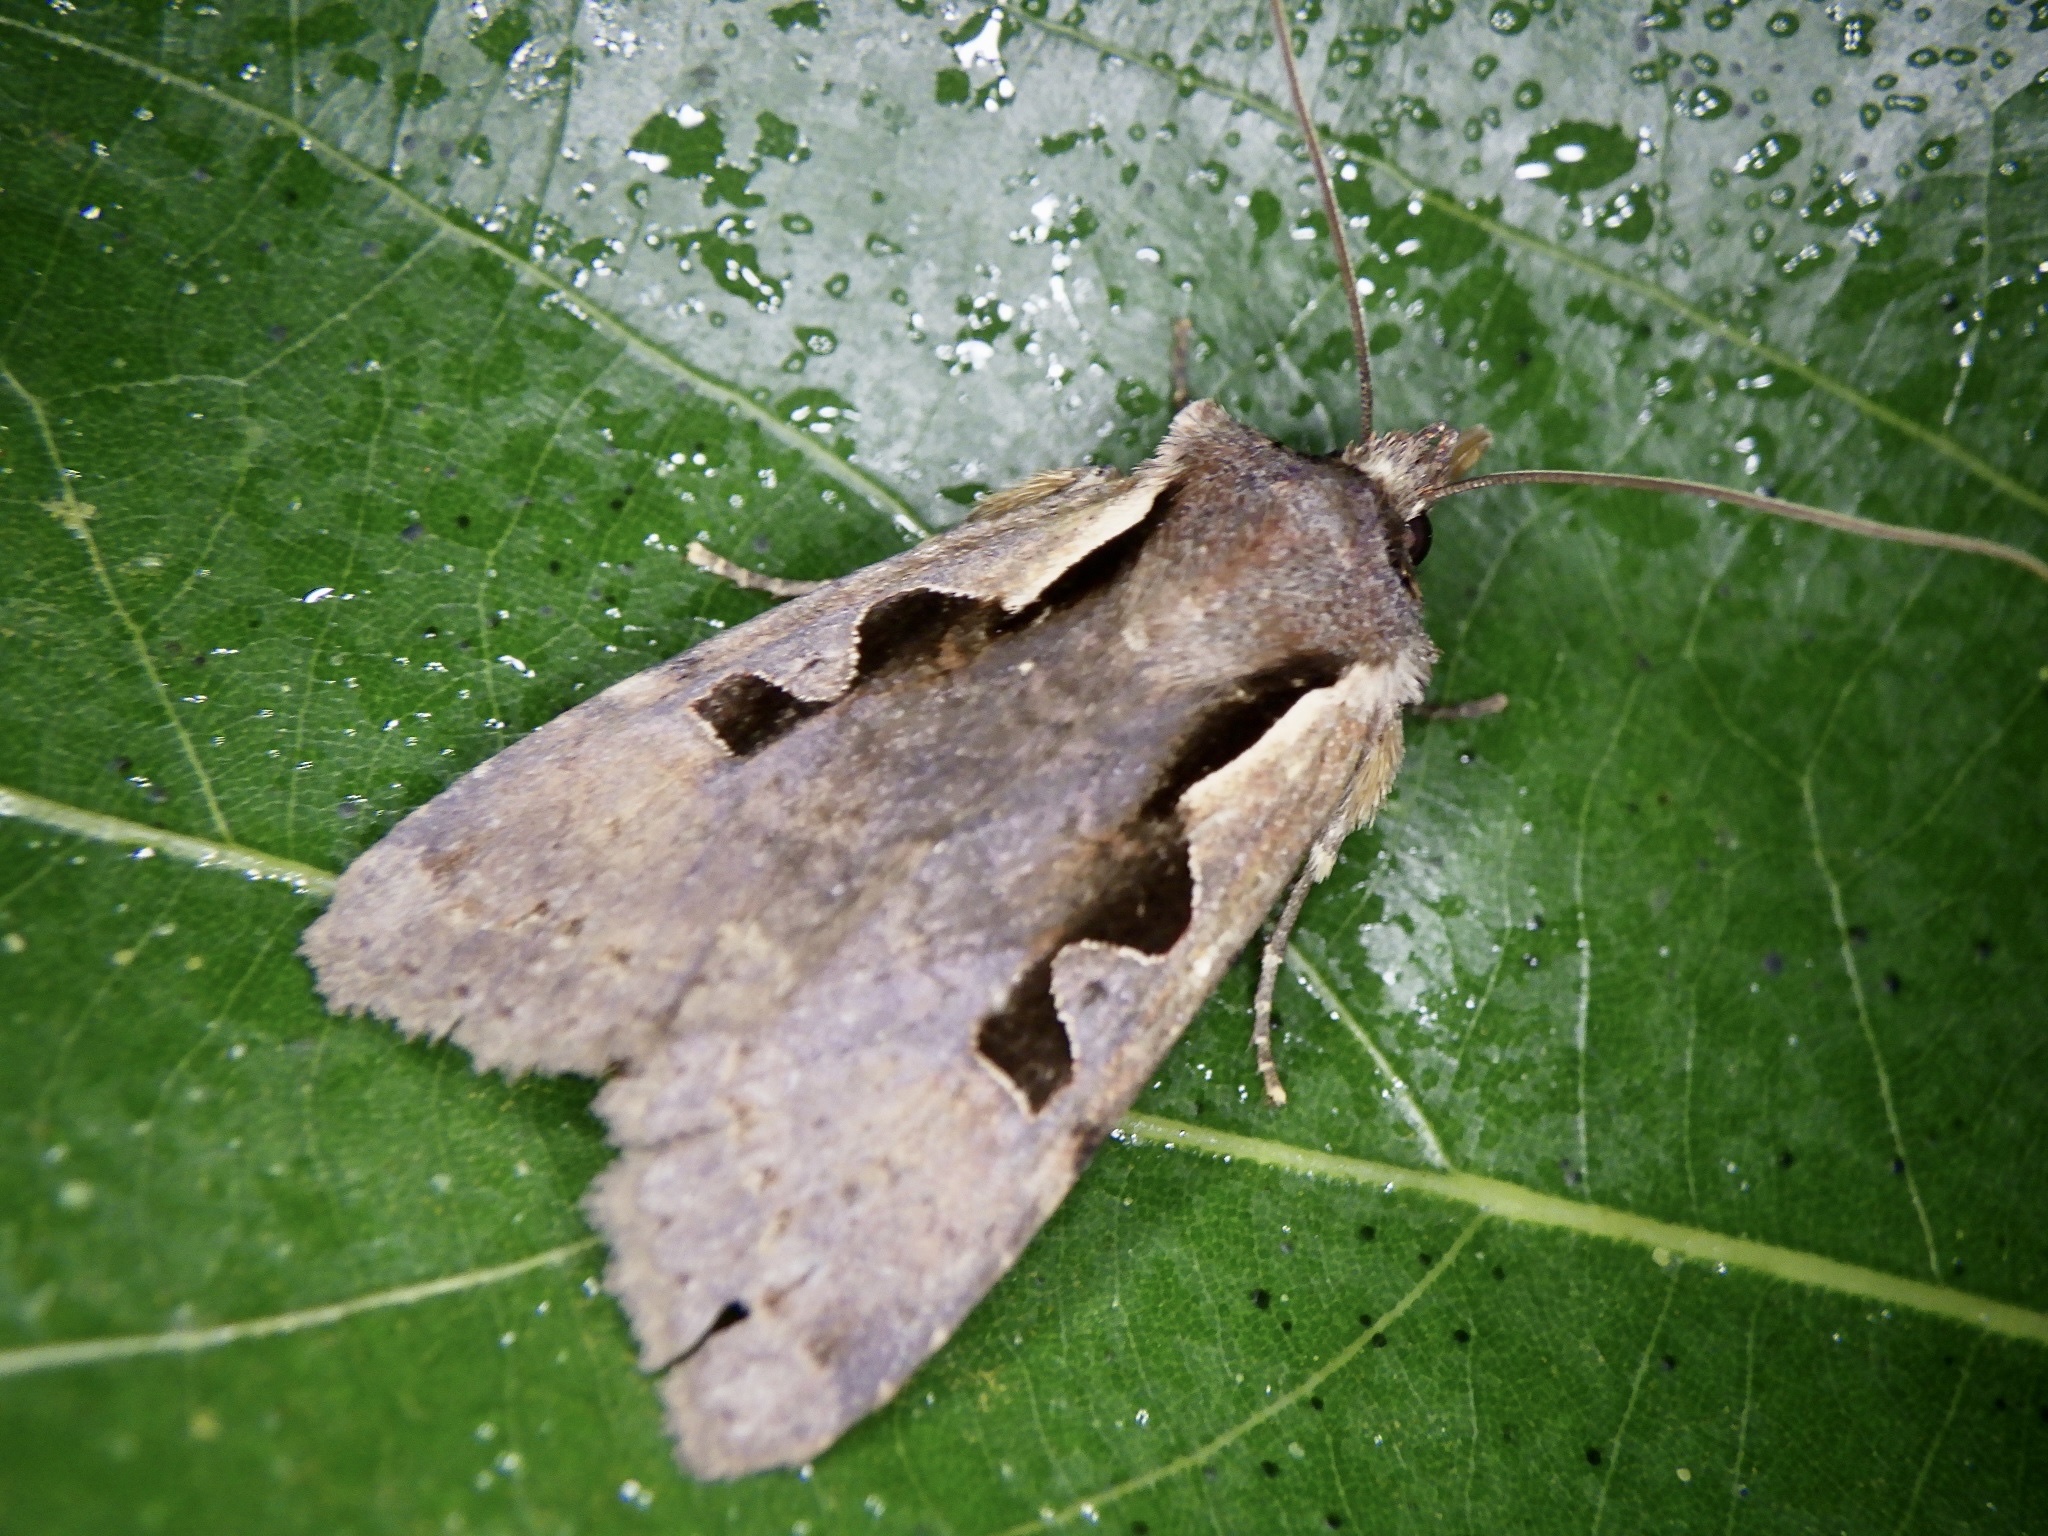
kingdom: Animalia
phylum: Arthropoda
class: Insecta
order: Lepidoptera
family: Noctuidae
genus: Sugitania
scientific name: Sugitania lepida
